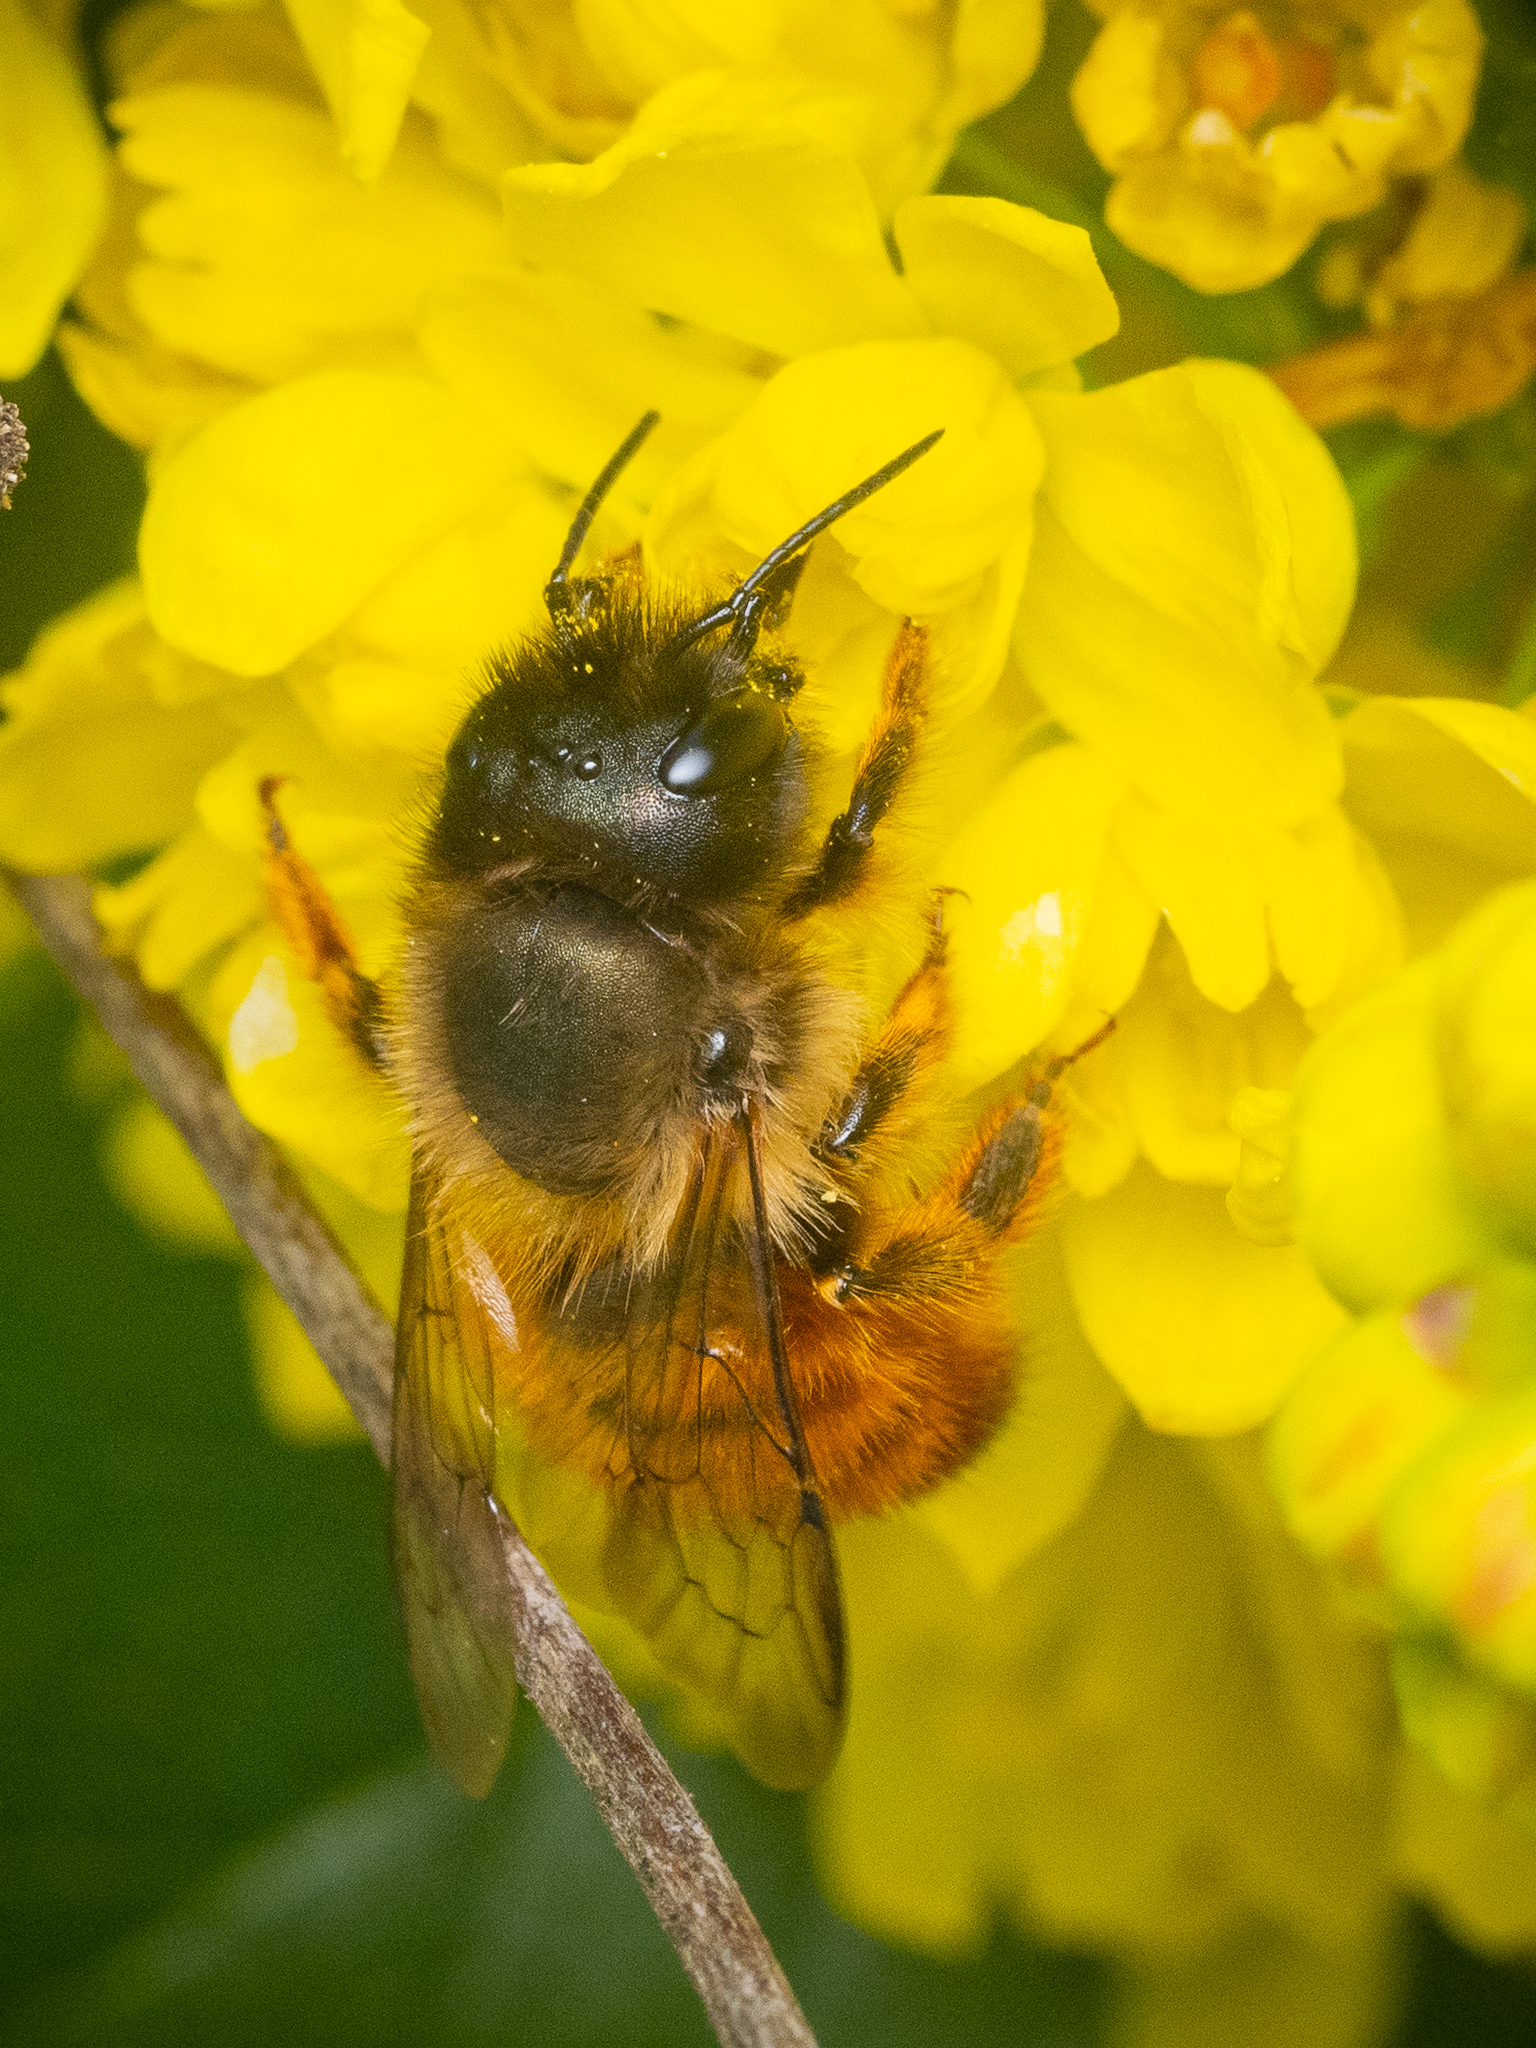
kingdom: Animalia
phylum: Arthropoda
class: Insecta
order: Hymenoptera
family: Megachilidae
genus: Osmia
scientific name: Osmia bicornis
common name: Red mason bee
